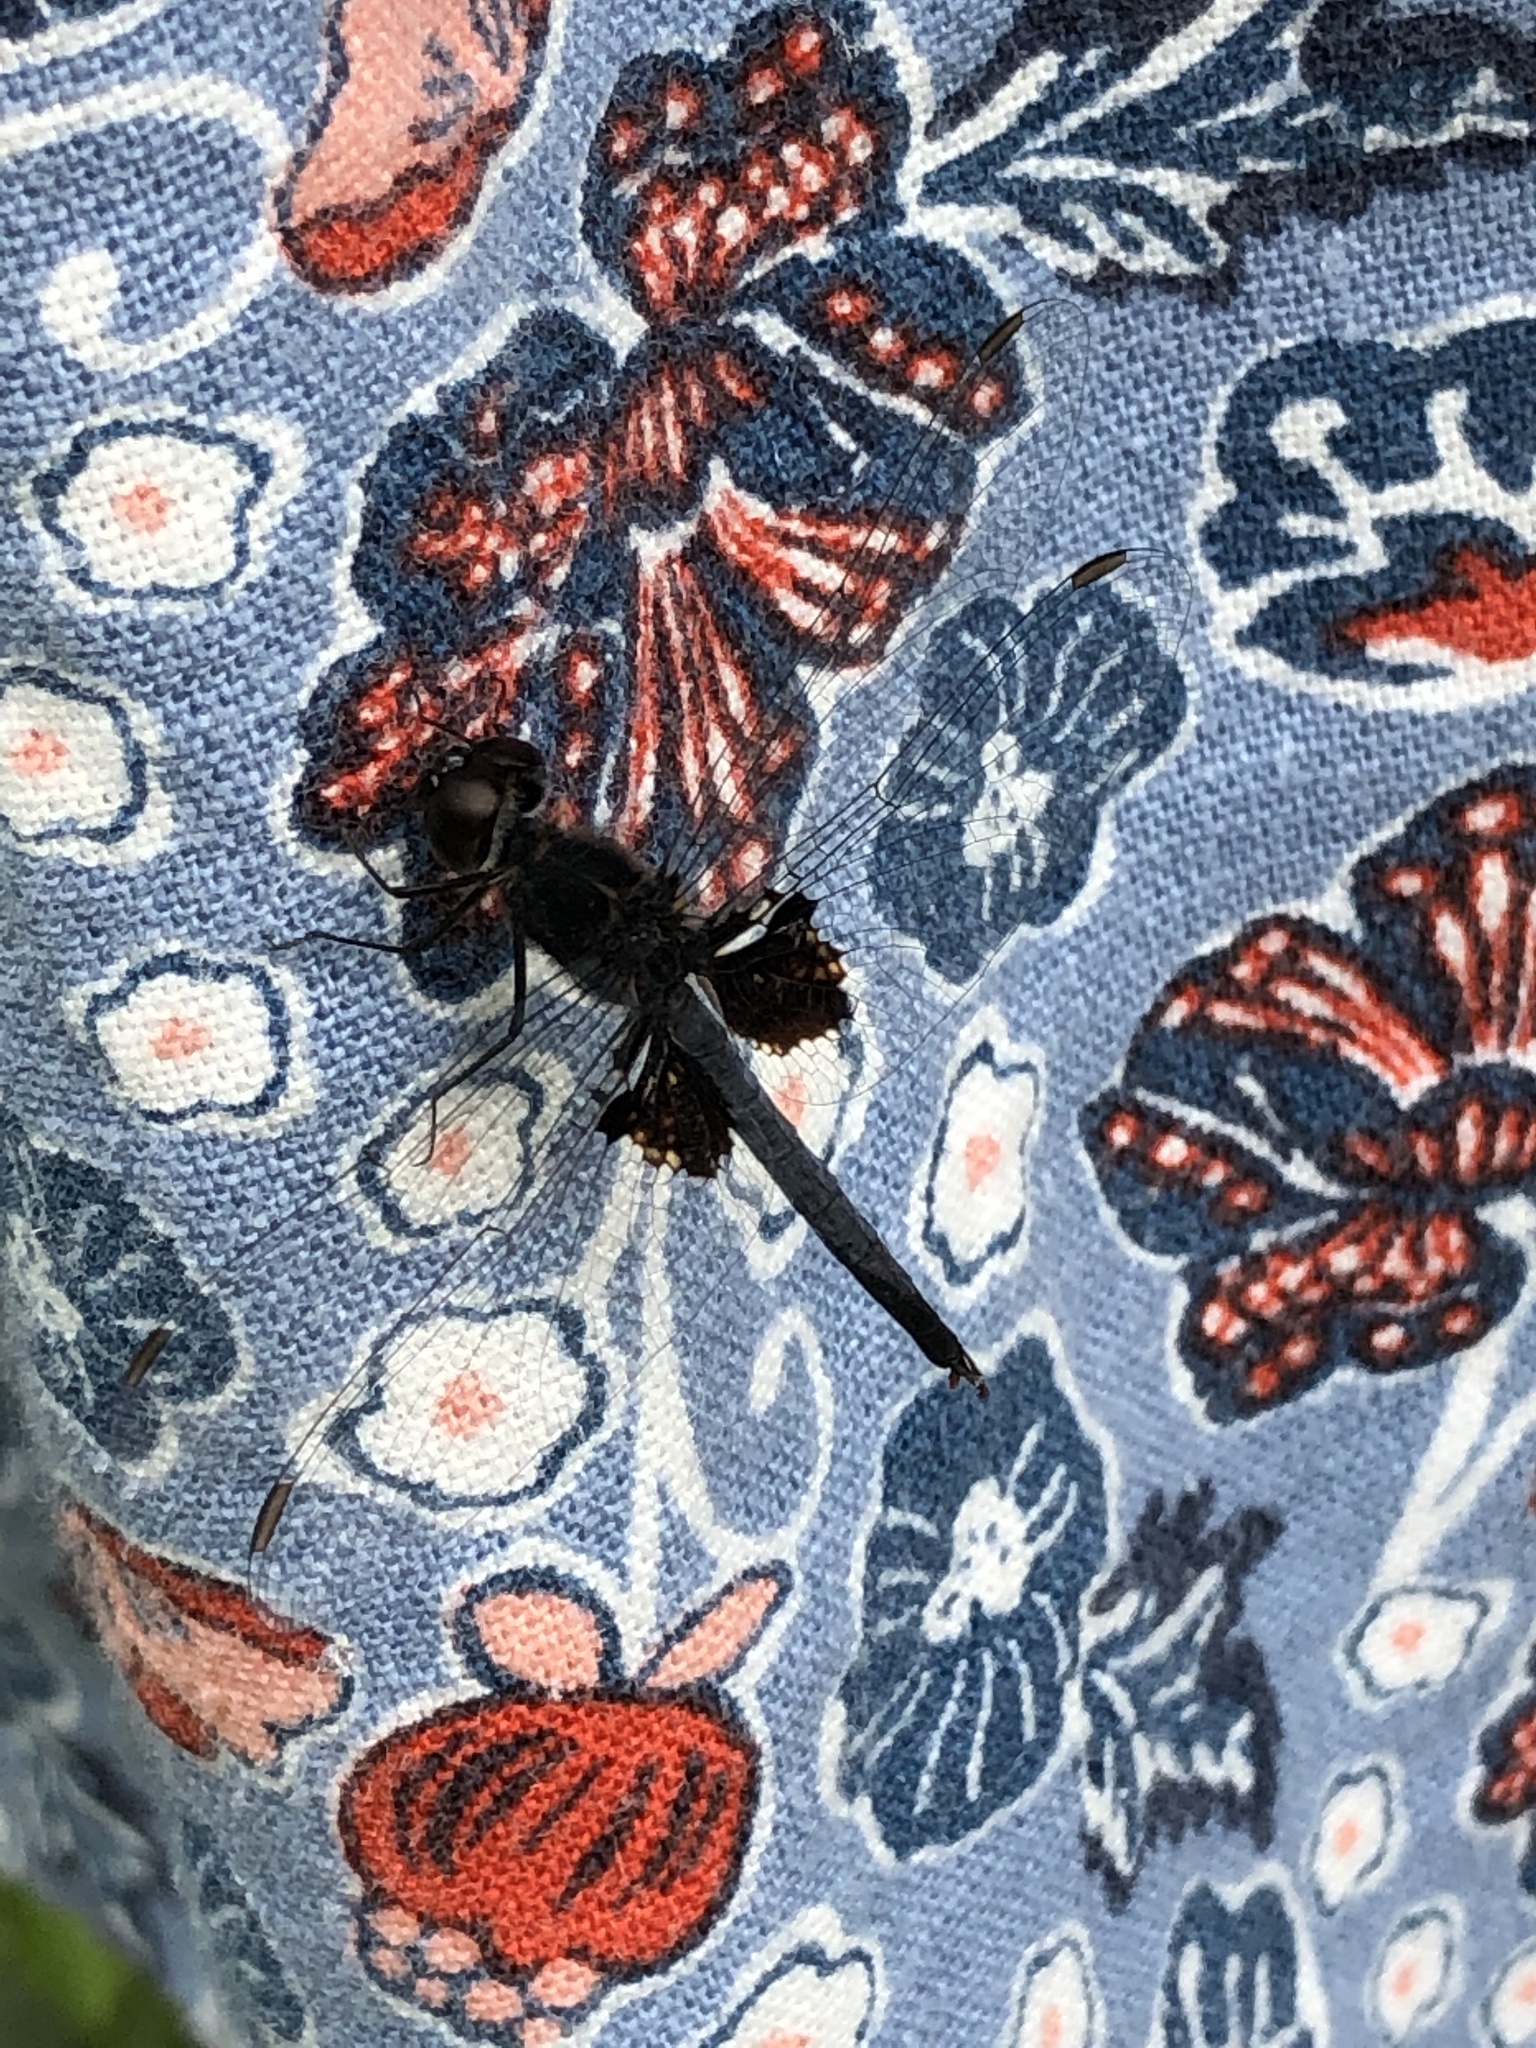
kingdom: Animalia
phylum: Arthropoda
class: Insecta
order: Odonata
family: Libellulidae
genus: Tramea
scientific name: Tramea lacerata
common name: Black saddlebags
